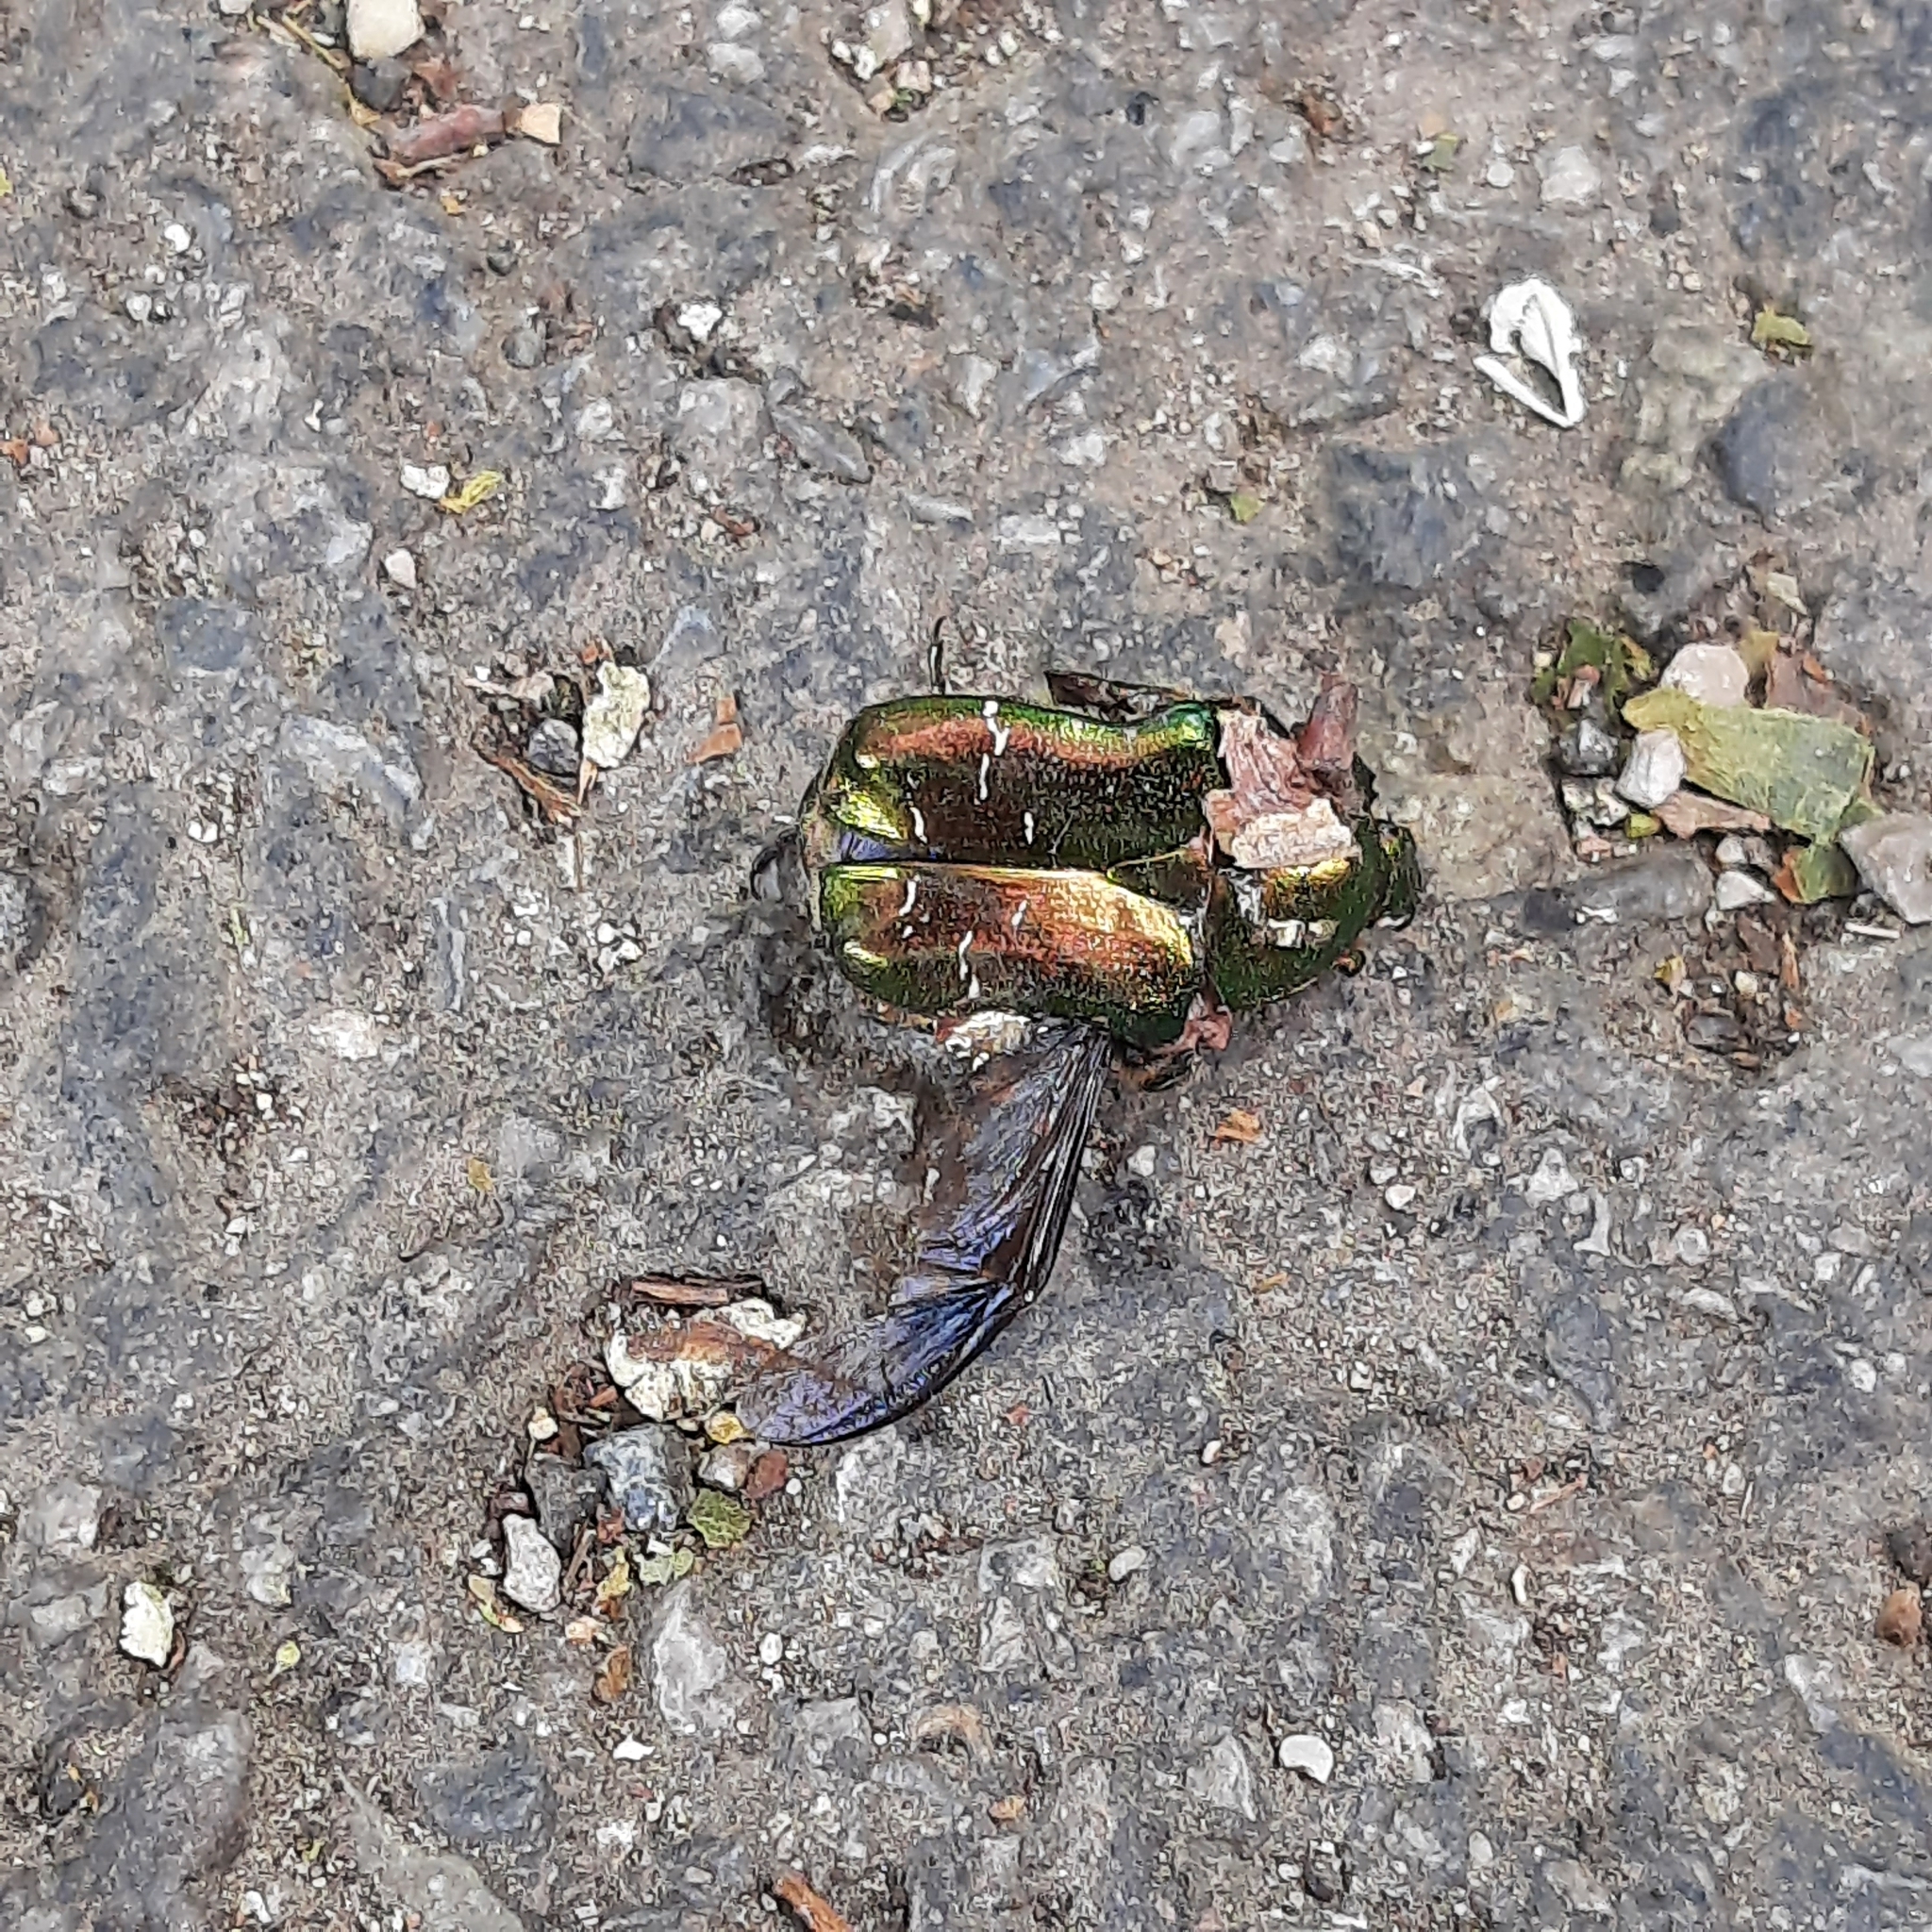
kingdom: Animalia
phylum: Arthropoda
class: Insecta
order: Coleoptera
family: Scarabaeidae
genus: Cetonia
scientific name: Cetonia aurata
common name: Rose chafer
